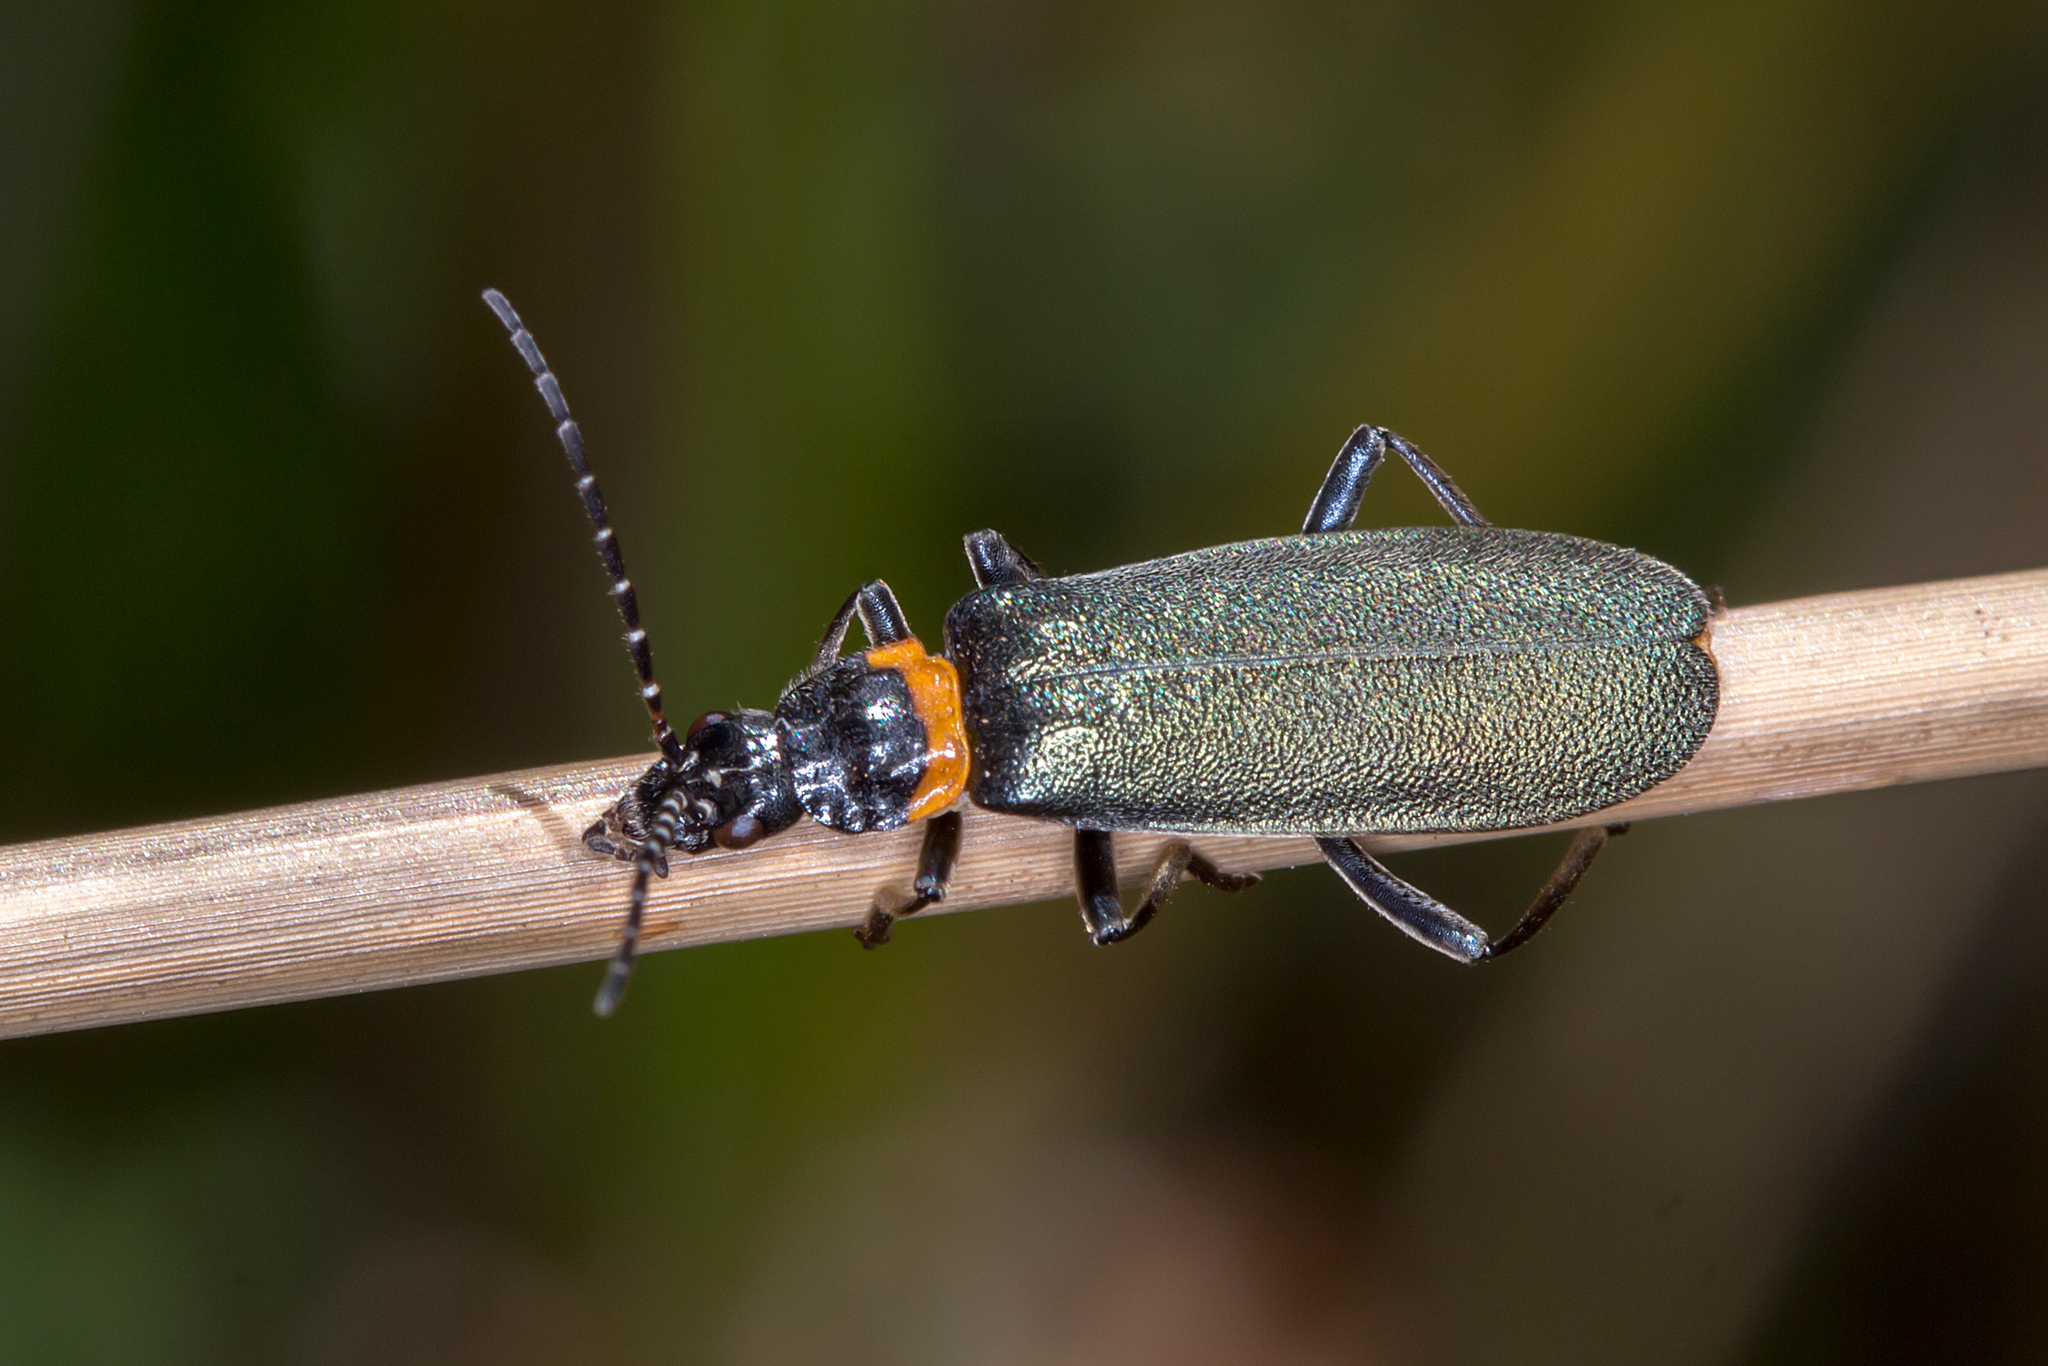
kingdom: Animalia
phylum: Arthropoda
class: Insecta
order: Coleoptera
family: Cantharidae
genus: Chauliognathus
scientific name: Chauliognathus
